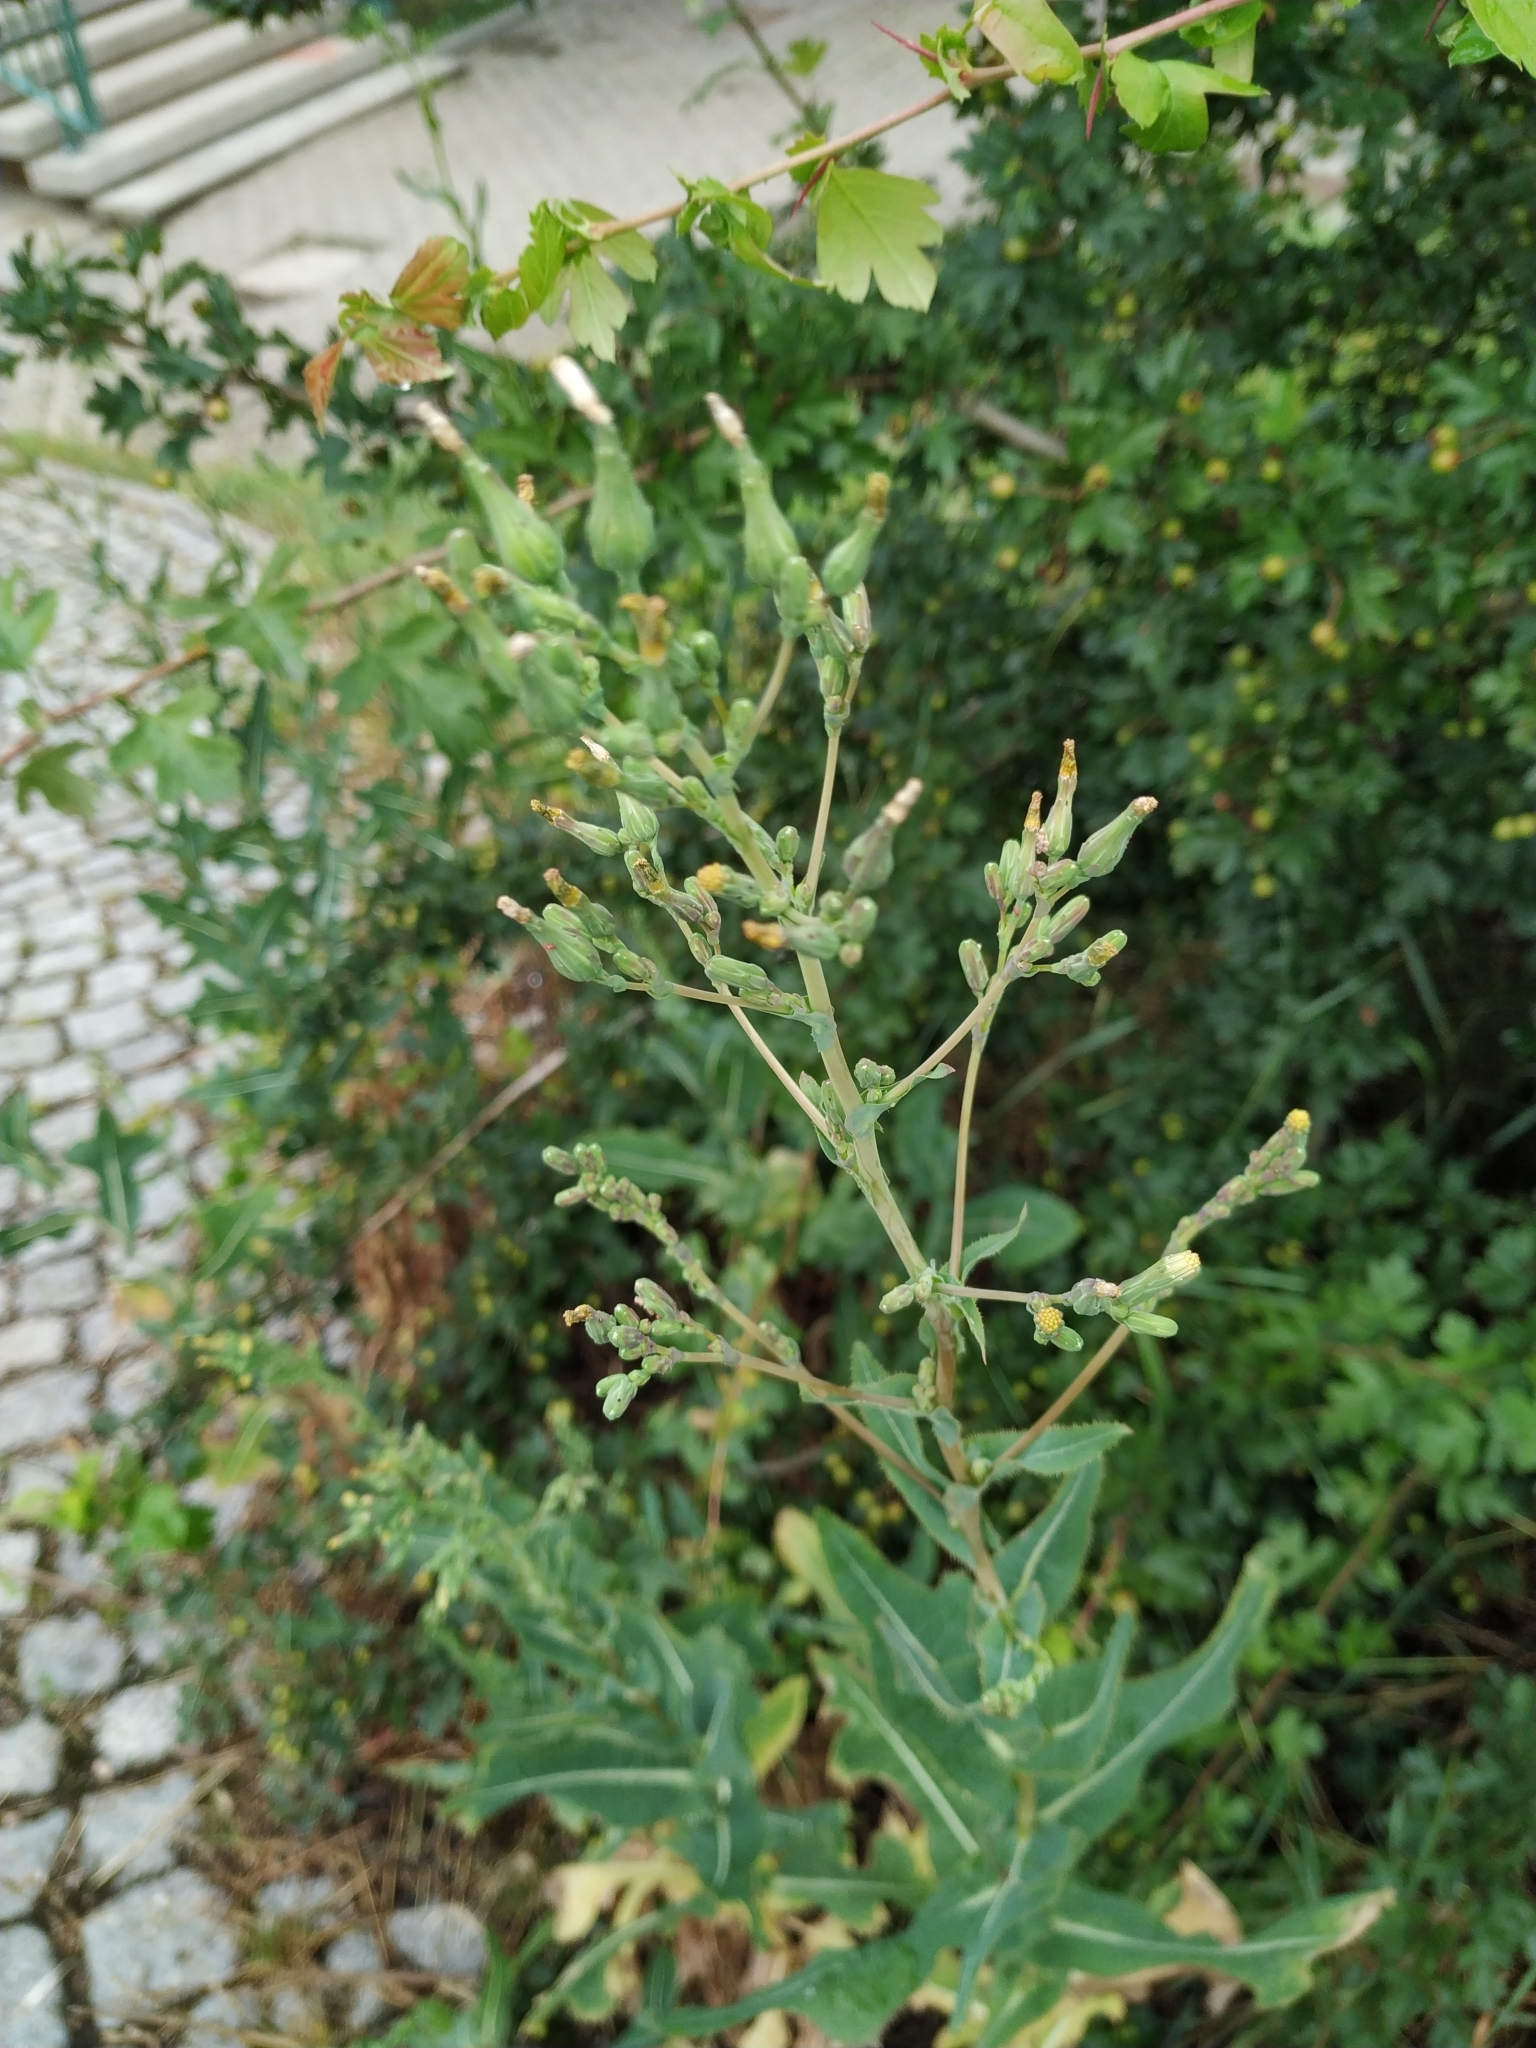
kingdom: Plantae
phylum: Tracheophyta
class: Magnoliopsida
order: Asterales
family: Asteraceae
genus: Lactuca
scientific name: Lactuca serriola
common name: Prickly lettuce
